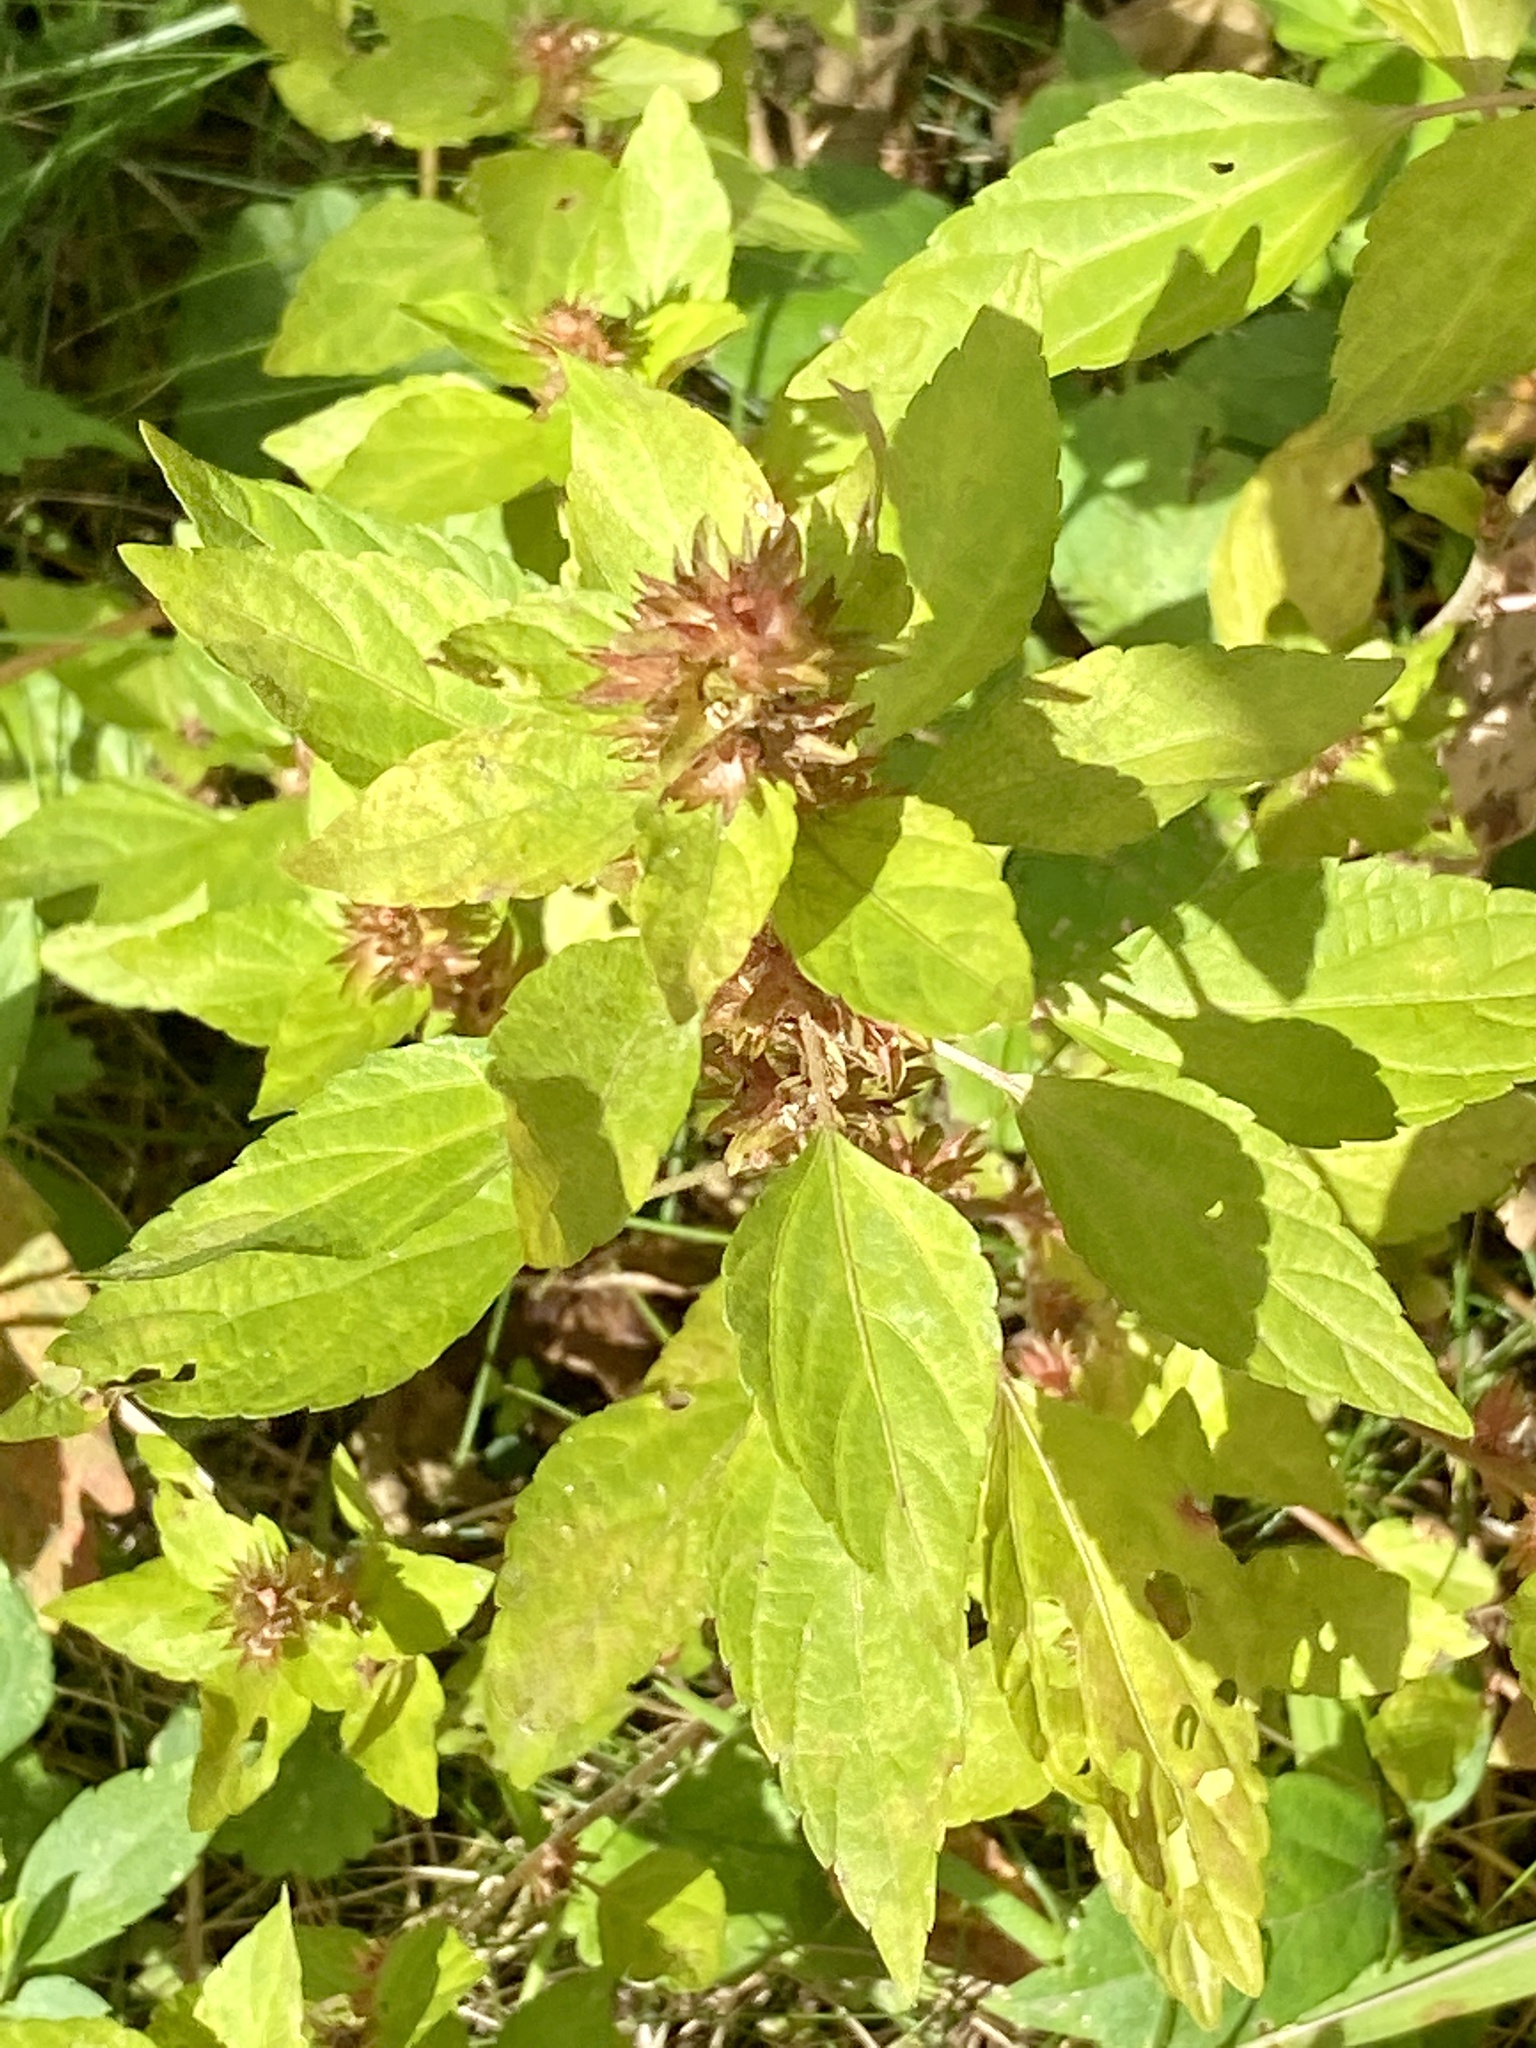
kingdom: Plantae
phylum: Tracheophyta
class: Magnoliopsida
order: Malpighiales
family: Euphorbiaceae
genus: Acalypha
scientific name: Acalypha rhomboidea
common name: Rhombic copperleaf
